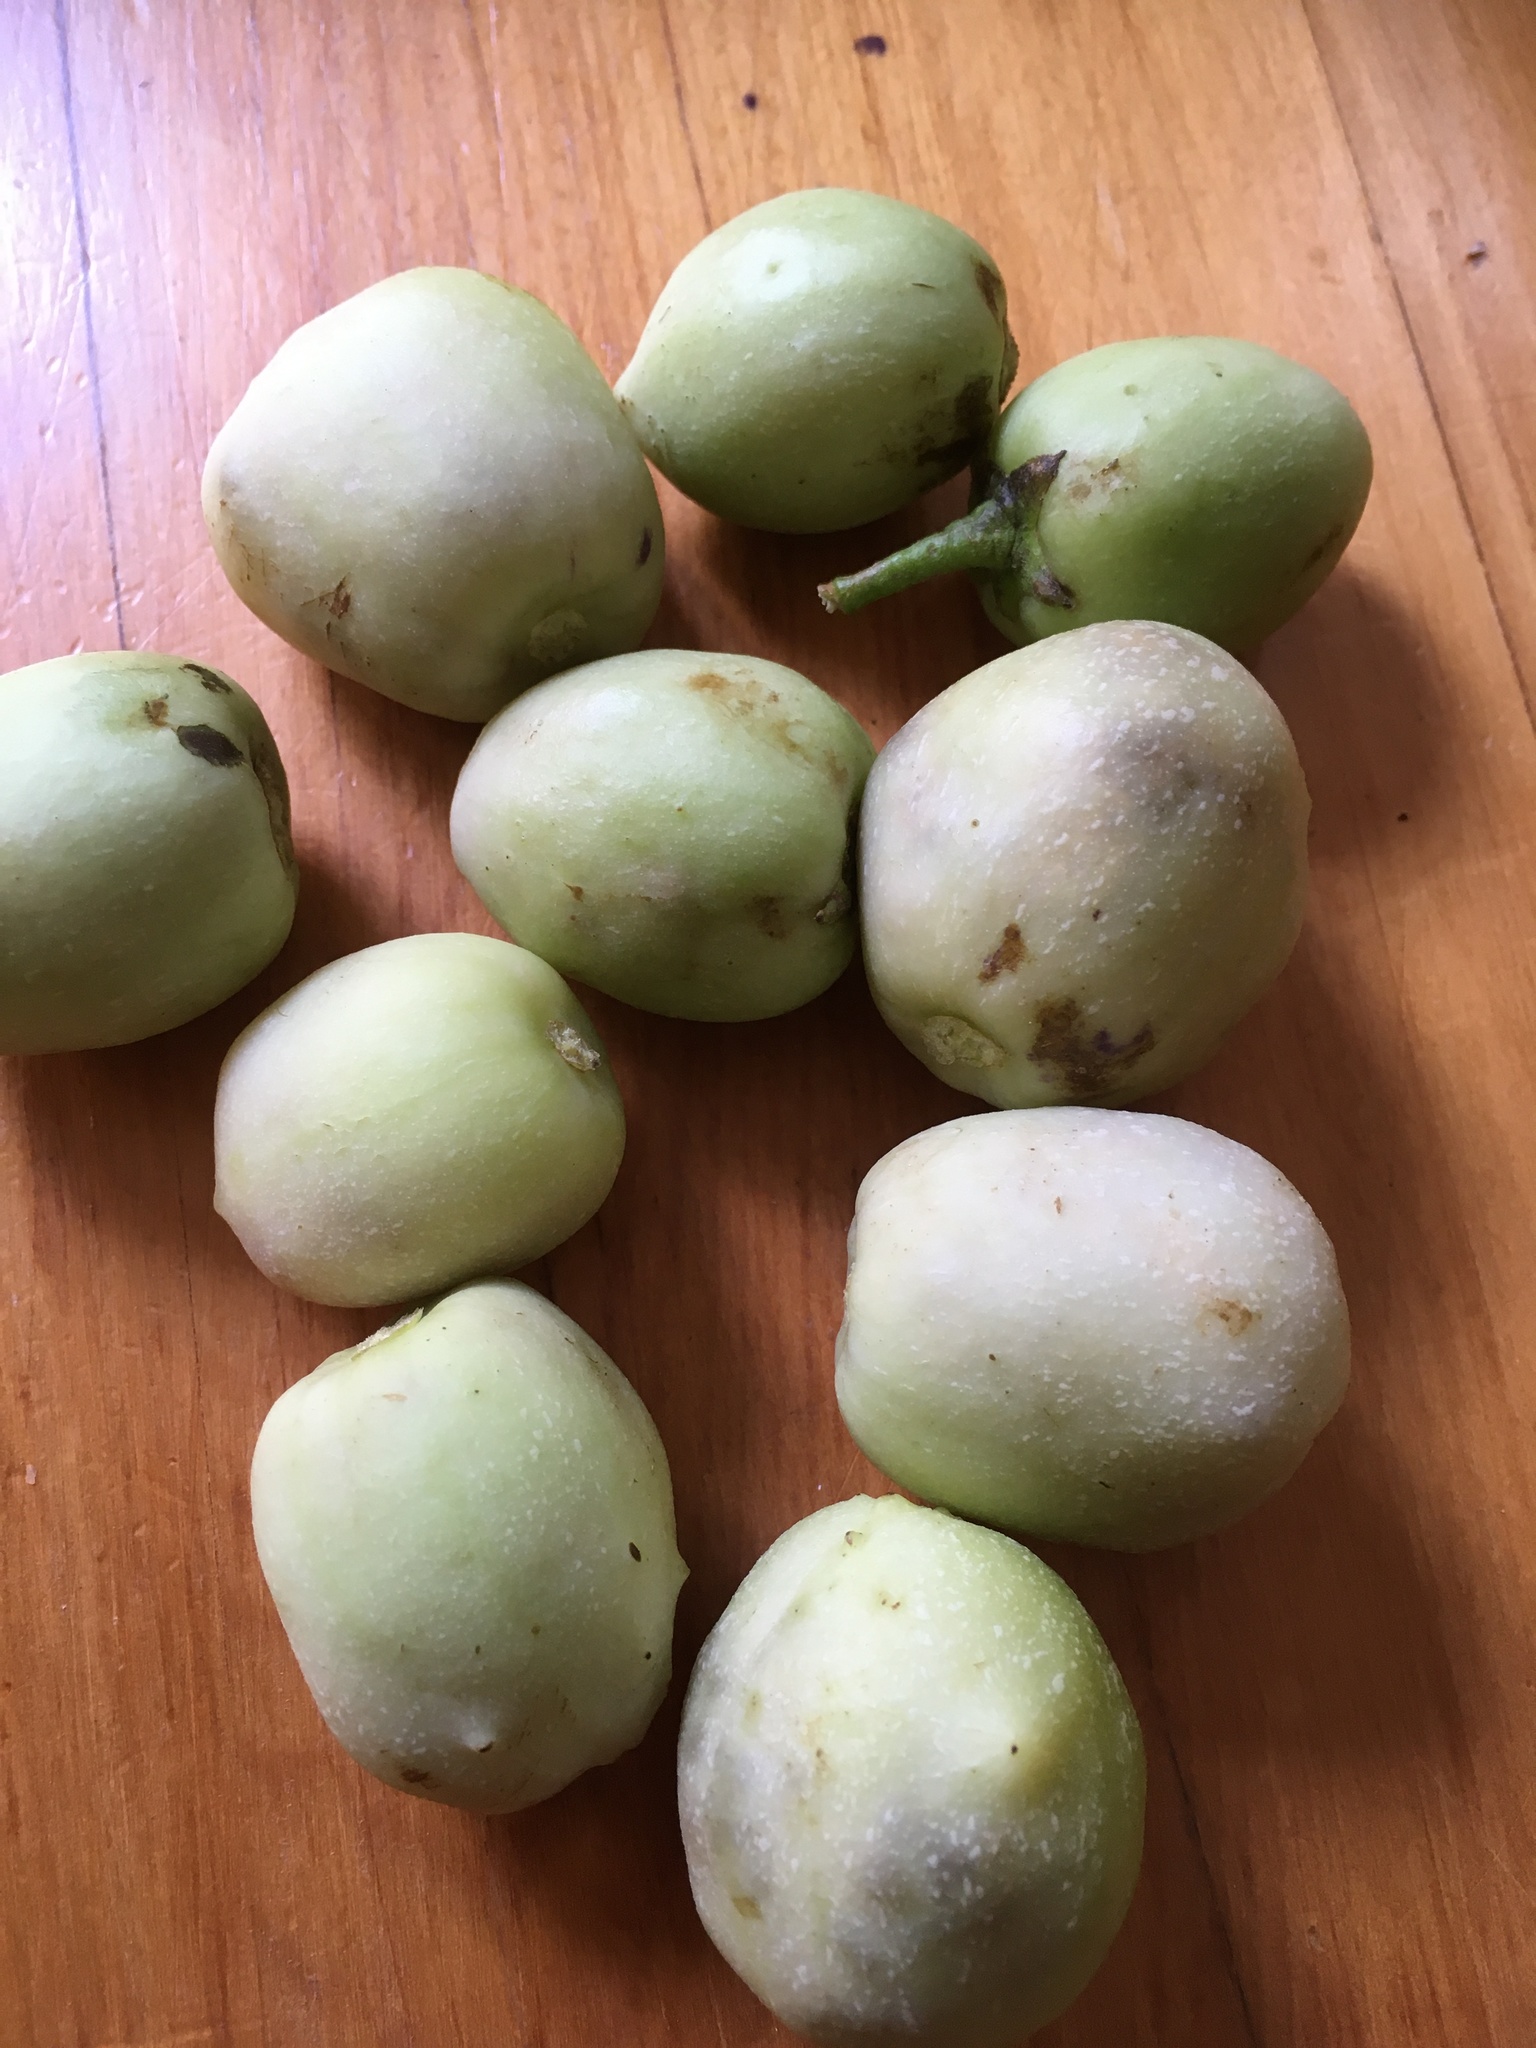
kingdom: Plantae
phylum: Tracheophyta
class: Magnoliopsida
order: Solanales
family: Solanaceae
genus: Solanum
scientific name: Solanum muricatum
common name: Peruvian pepino
